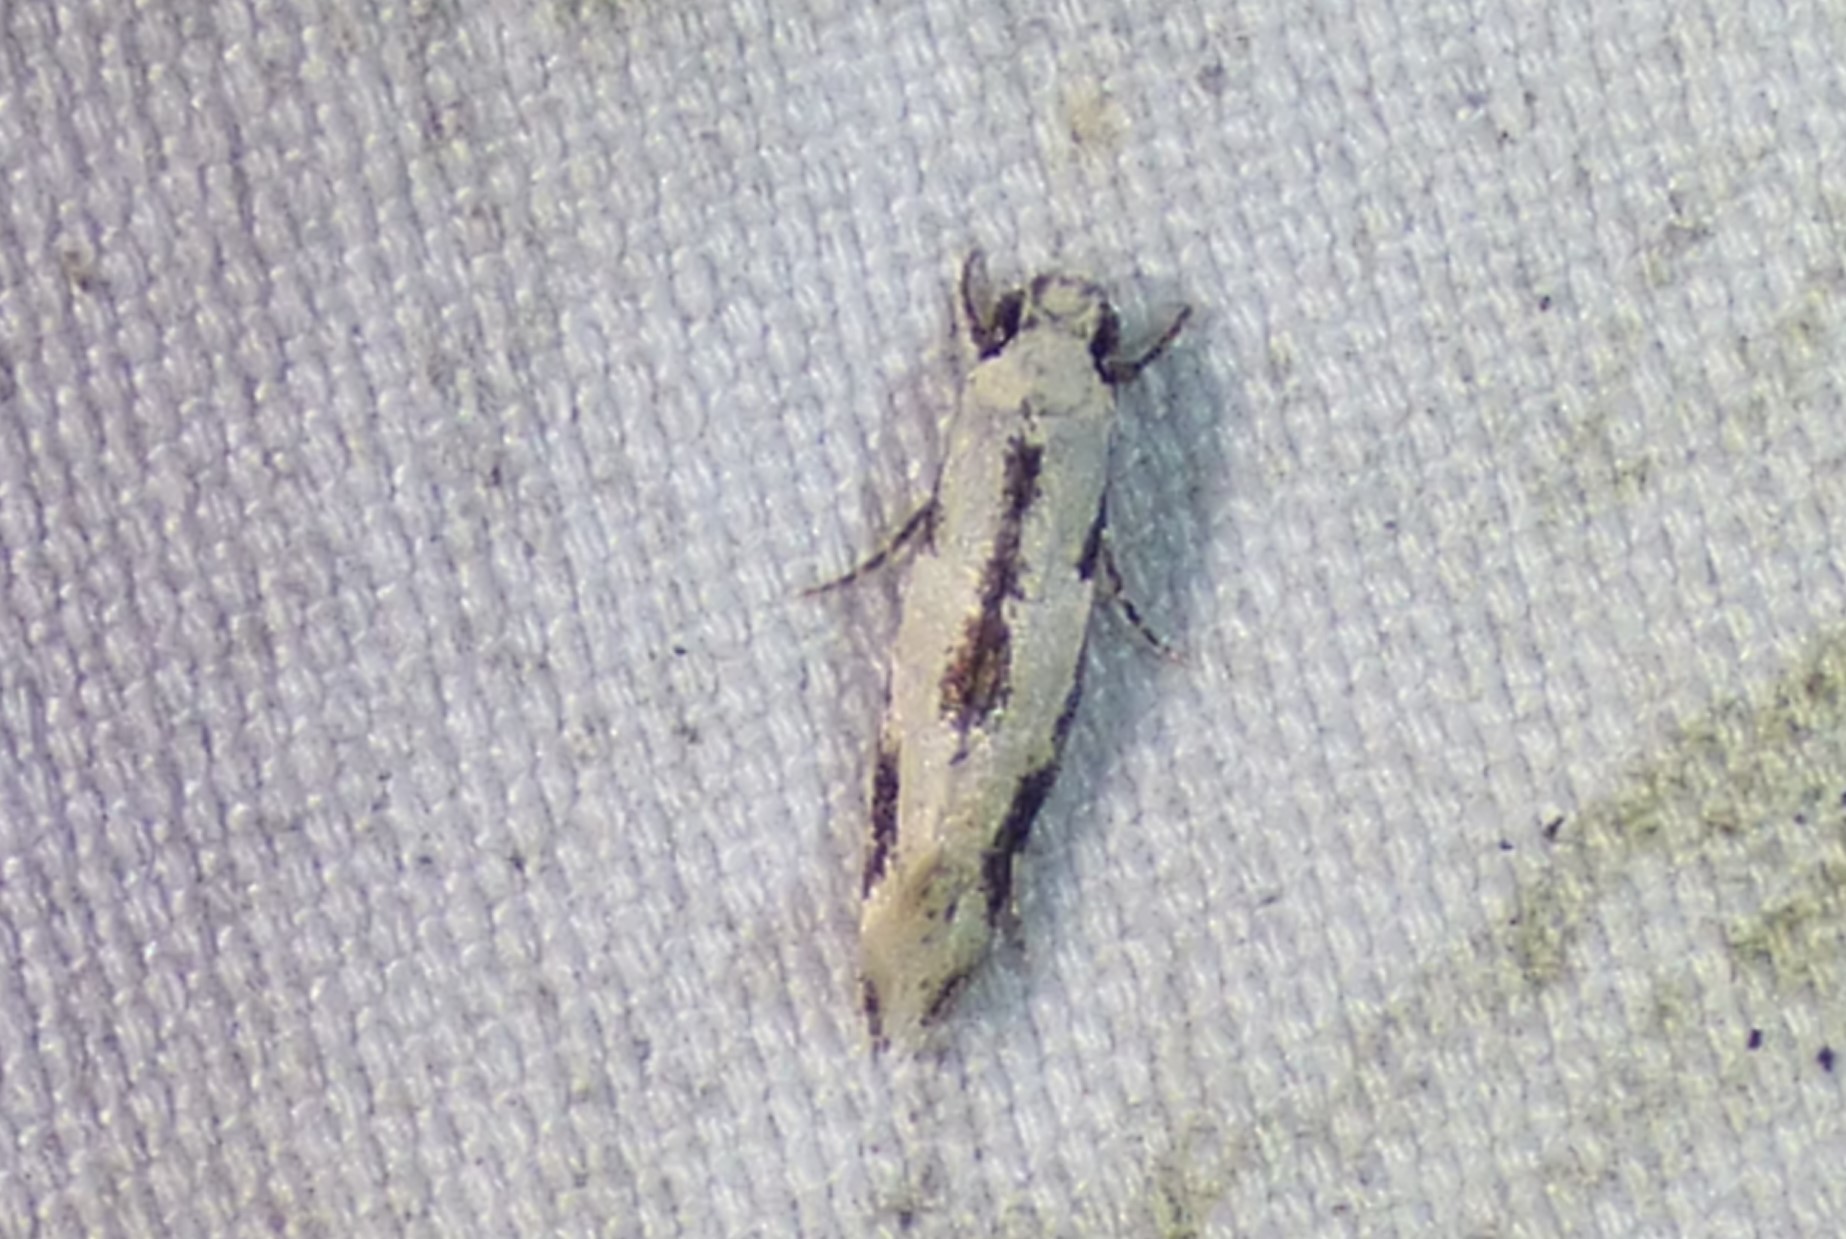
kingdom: Animalia
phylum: Arthropoda
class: Insecta
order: Lepidoptera
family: Meessiidae
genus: Mea
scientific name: Mea bipunctella
